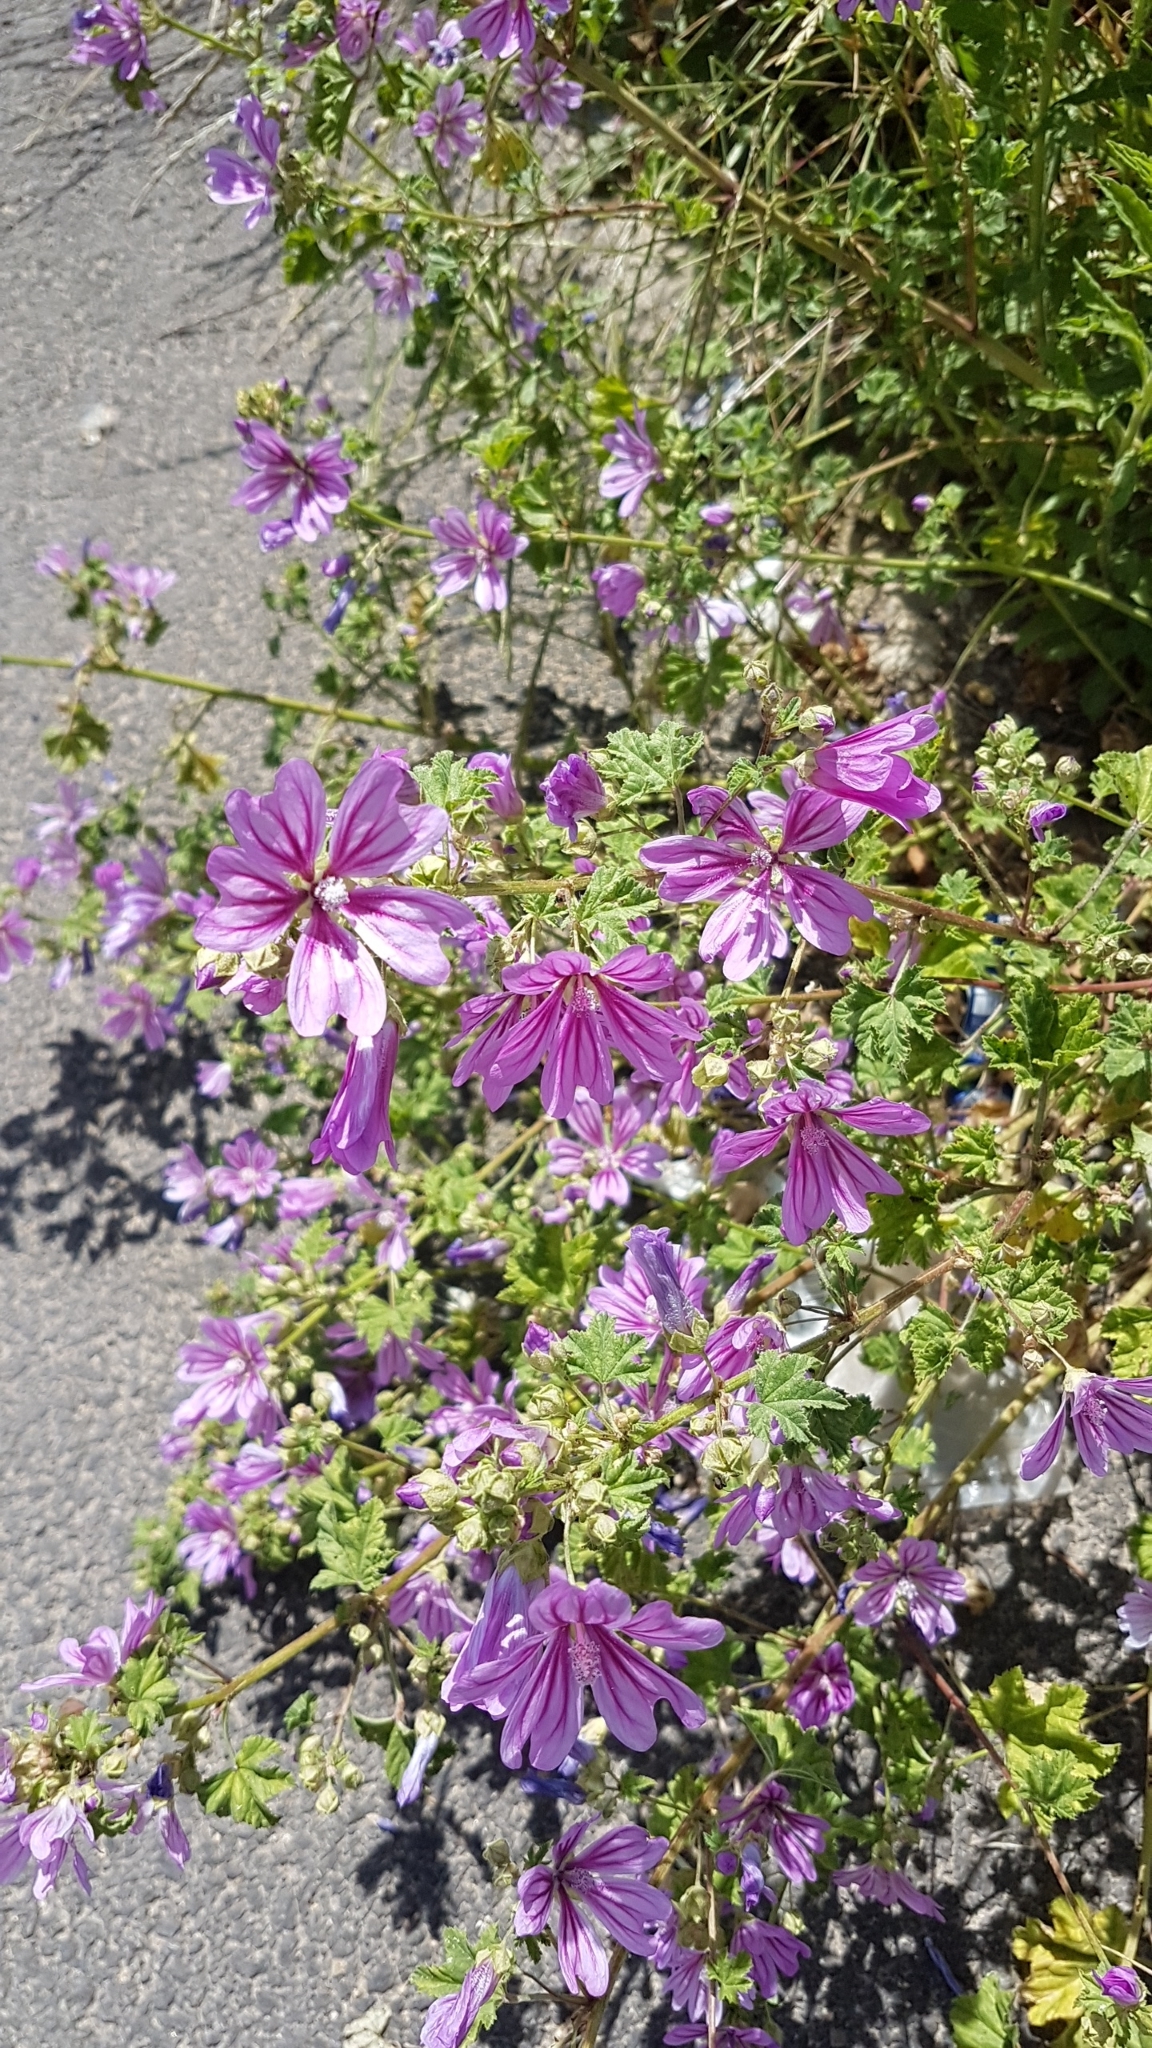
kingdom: Plantae
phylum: Tracheophyta
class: Magnoliopsida
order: Malvales
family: Malvaceae
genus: Malva
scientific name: Malva sylvestris
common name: Common mallow
